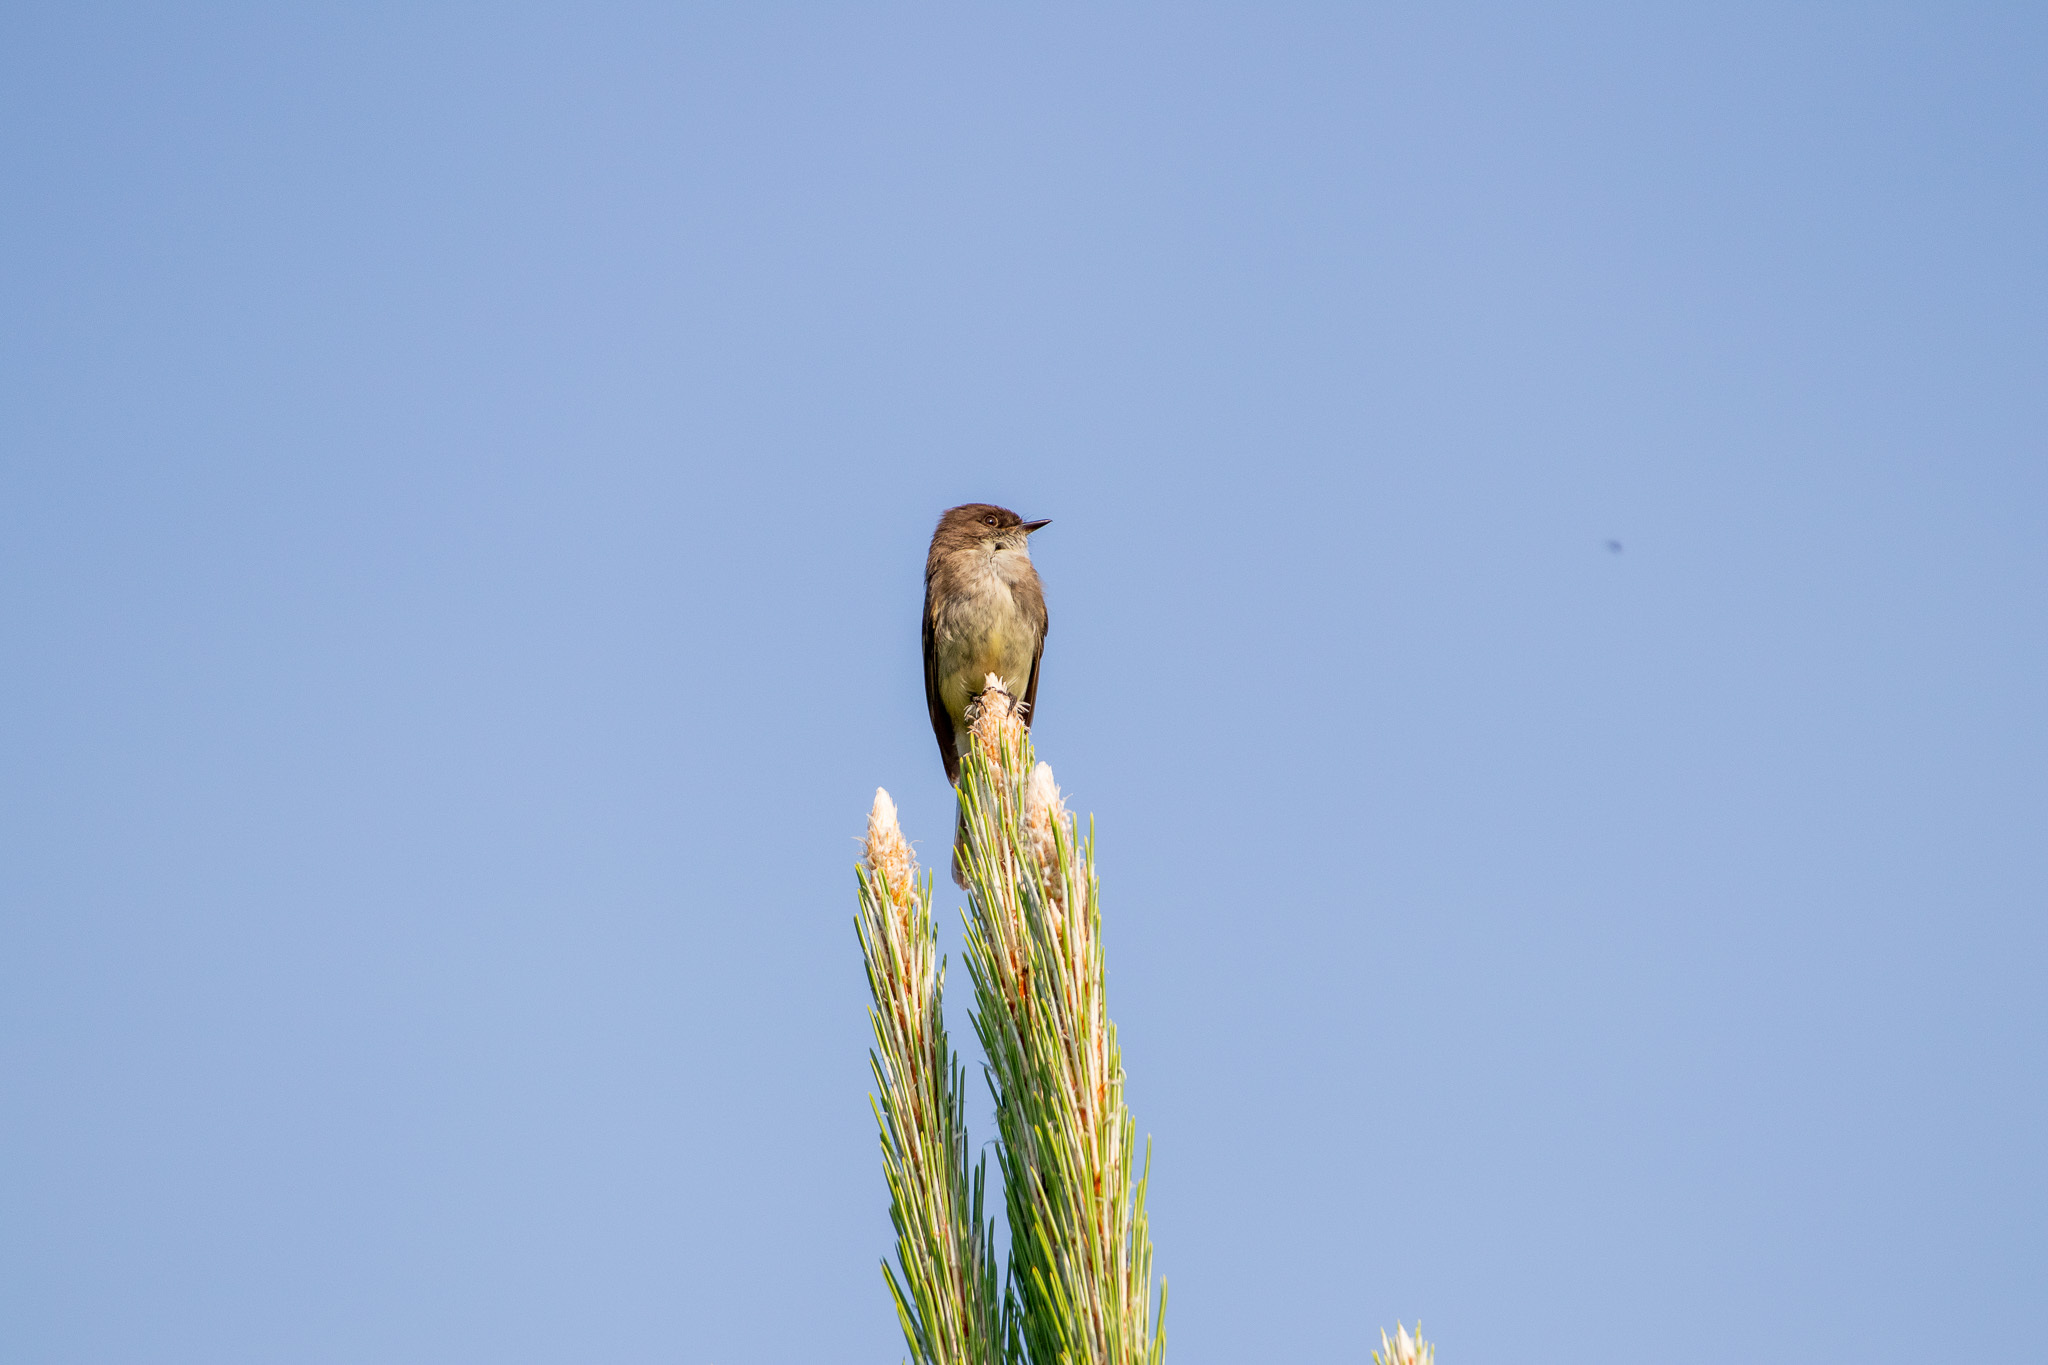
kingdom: Animalia
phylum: Chordata
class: Aves
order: Passeriformes
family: Tyrannidae
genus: Sayornis
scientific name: Sayornis phoebe
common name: Eastern phoebe
